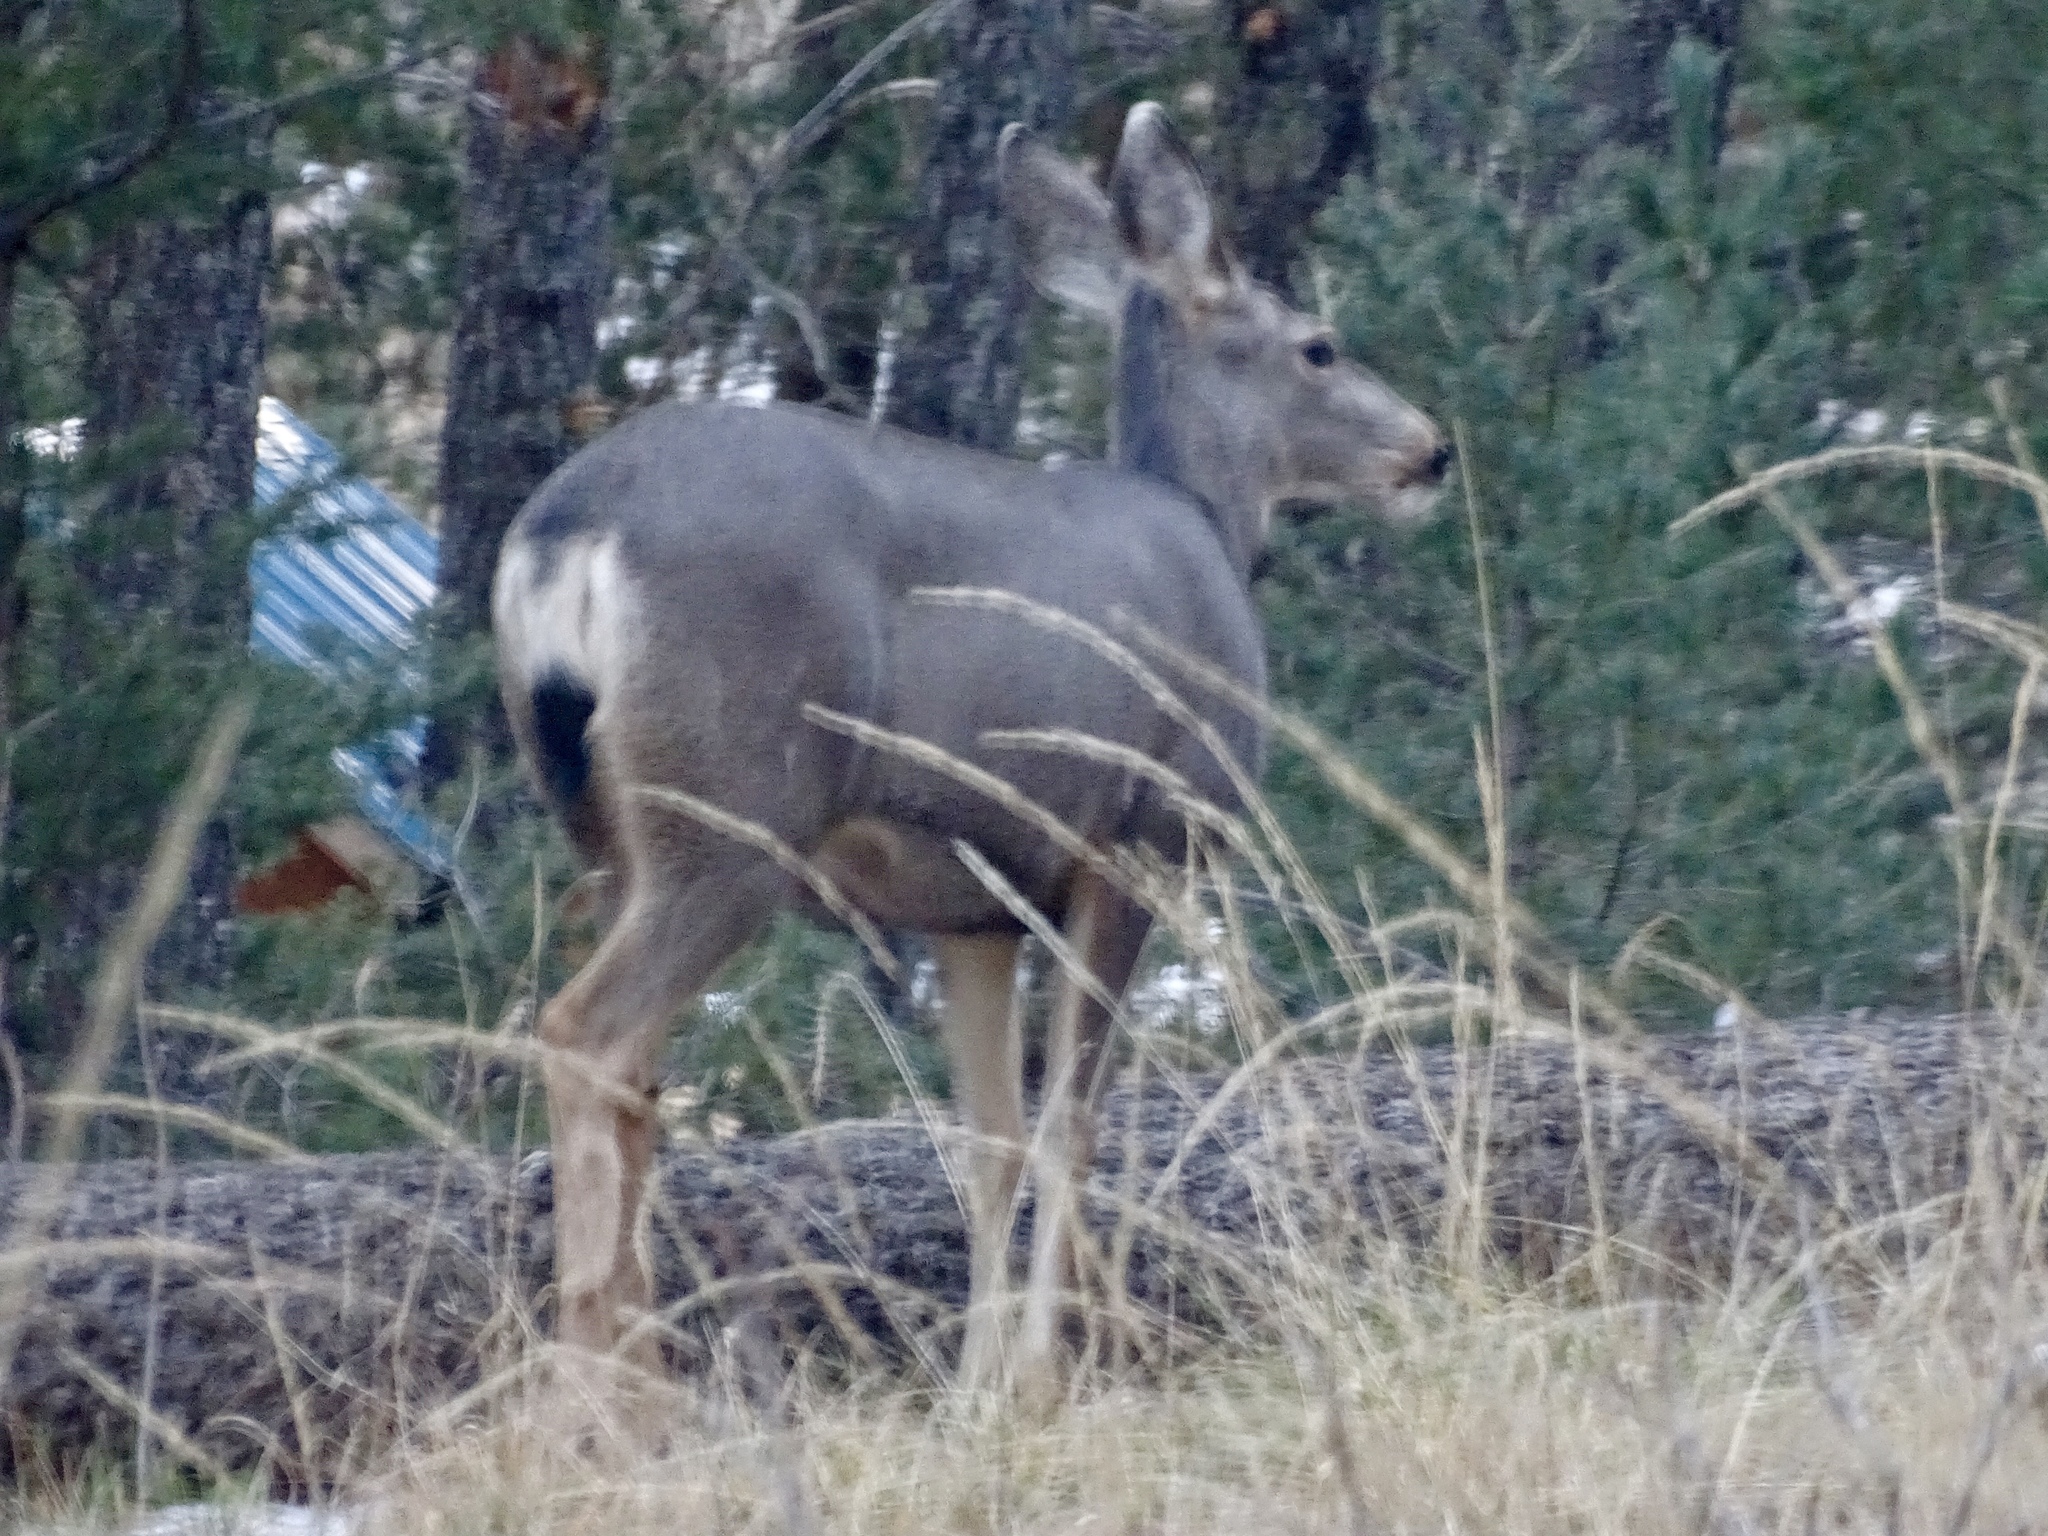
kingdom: Animalia
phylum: Chordata
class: Mammalia
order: Artiodactyla
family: Cervidae
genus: Odocoileus
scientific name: Odocoileus hemionus
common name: Mule deer
